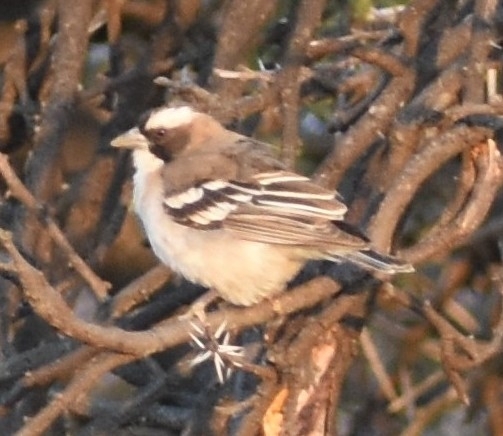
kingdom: Animalia
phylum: Chordata
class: Aves
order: Passeriformes
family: Passeridae
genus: Plocepasser
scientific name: Plocepasser mahali
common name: White-browed sparrow-weaver
